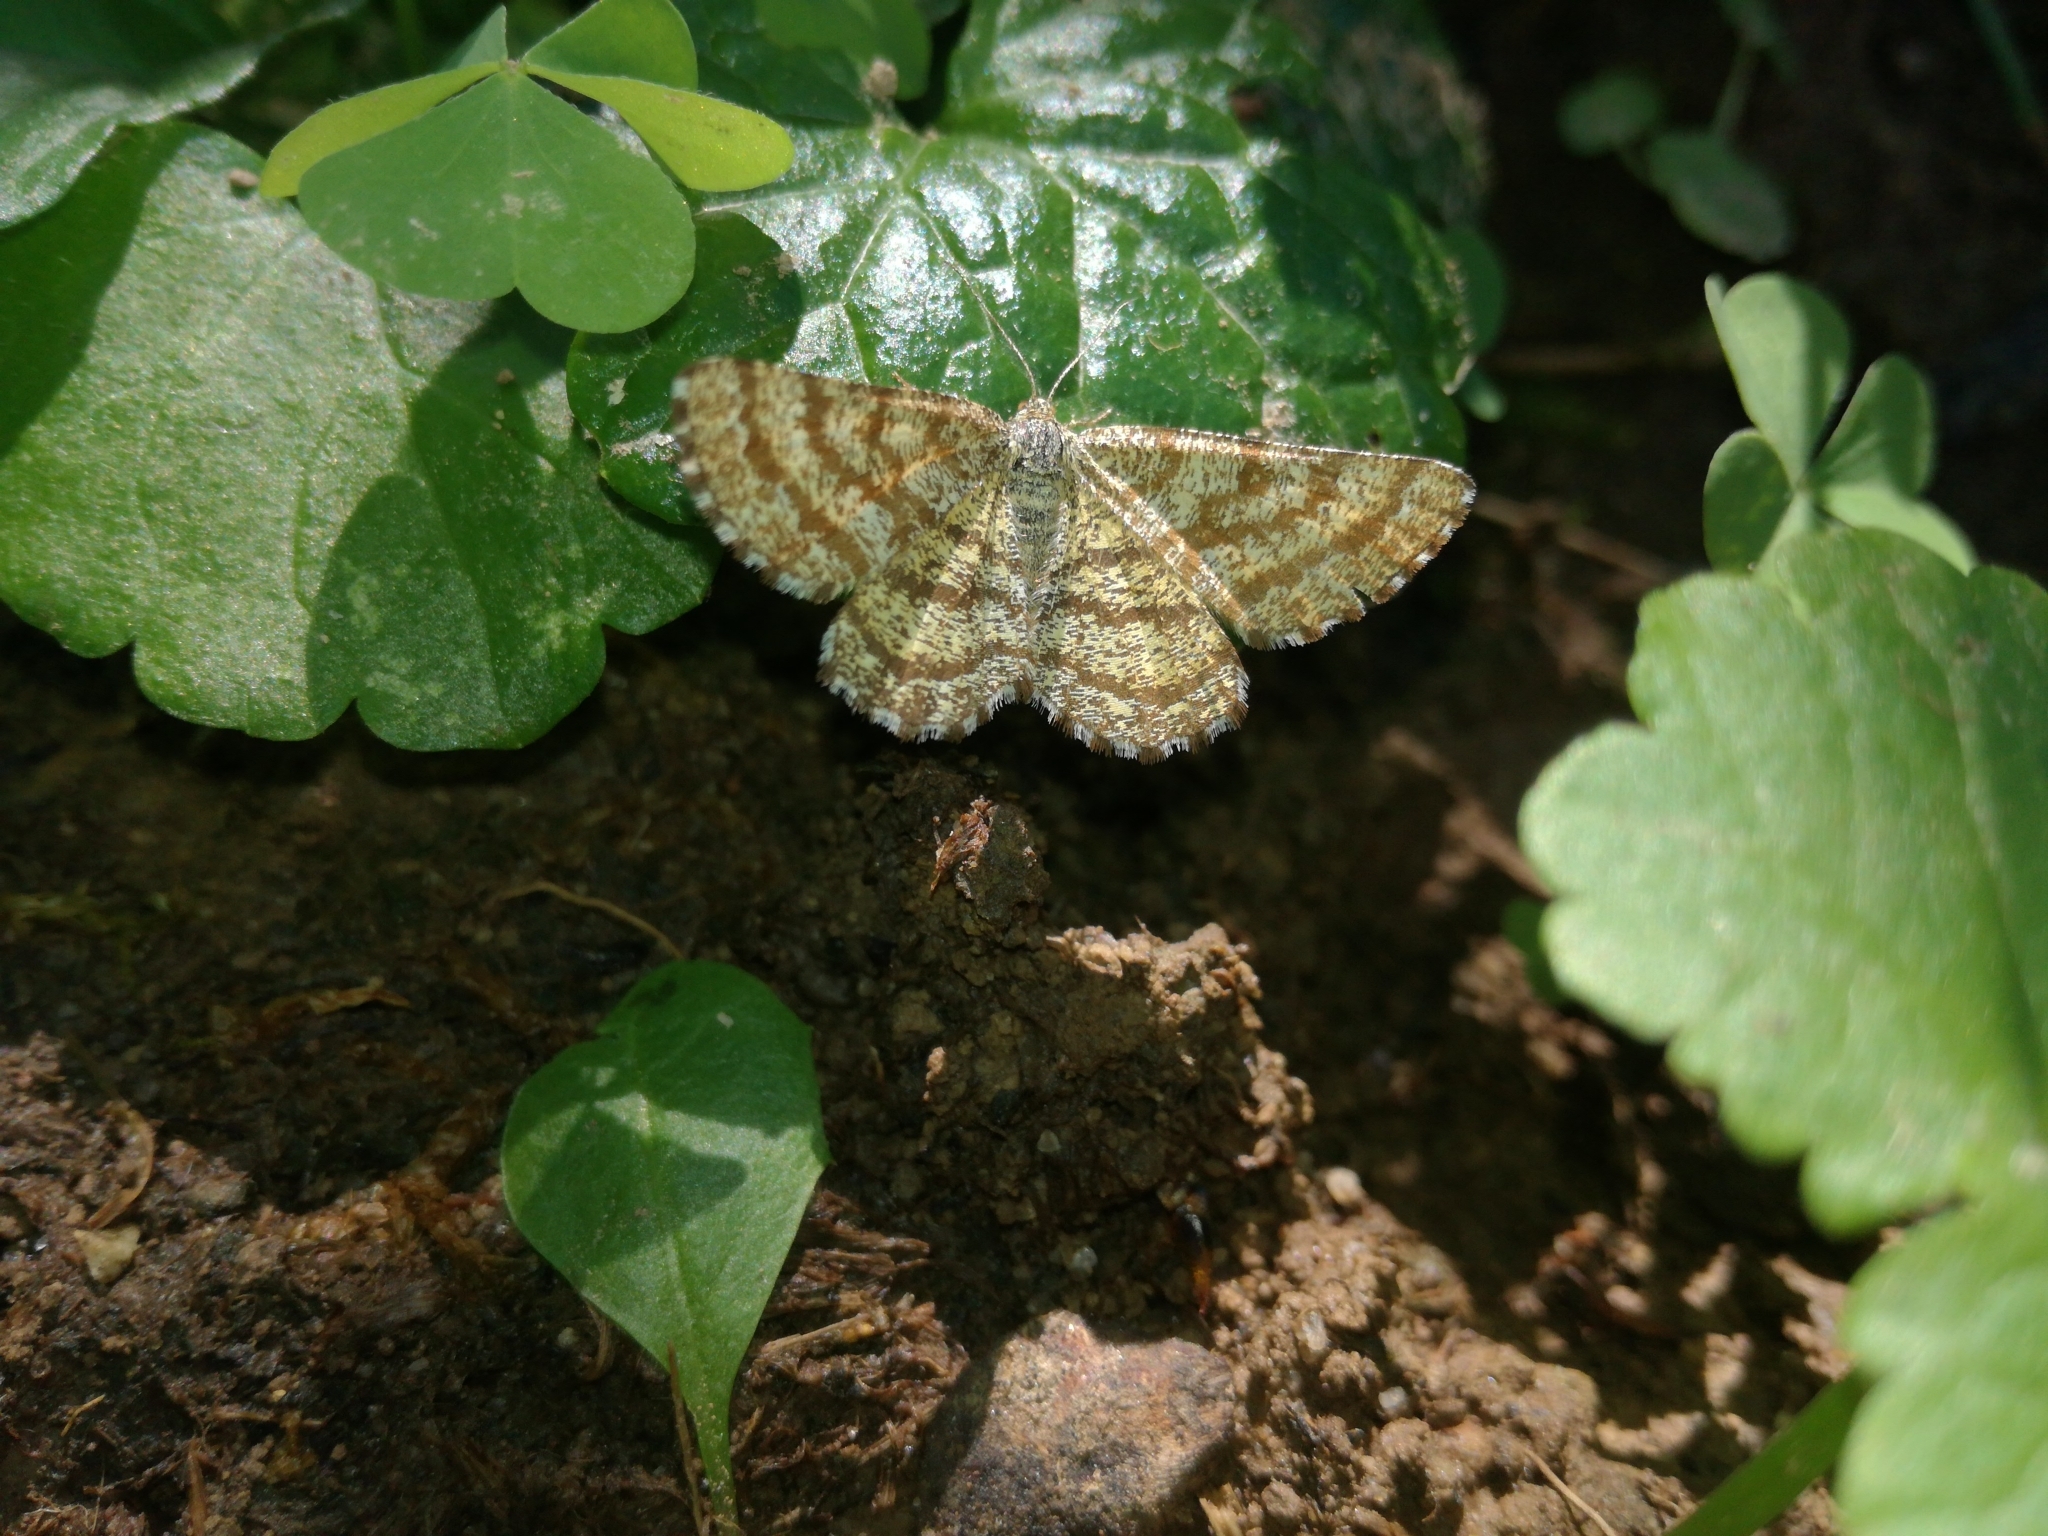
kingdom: Animalia
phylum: Arthropoda
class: Insecta
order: Lepidoptera
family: Geometridae
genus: Ematurga
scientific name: Ematurga atomaria
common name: Common heath
